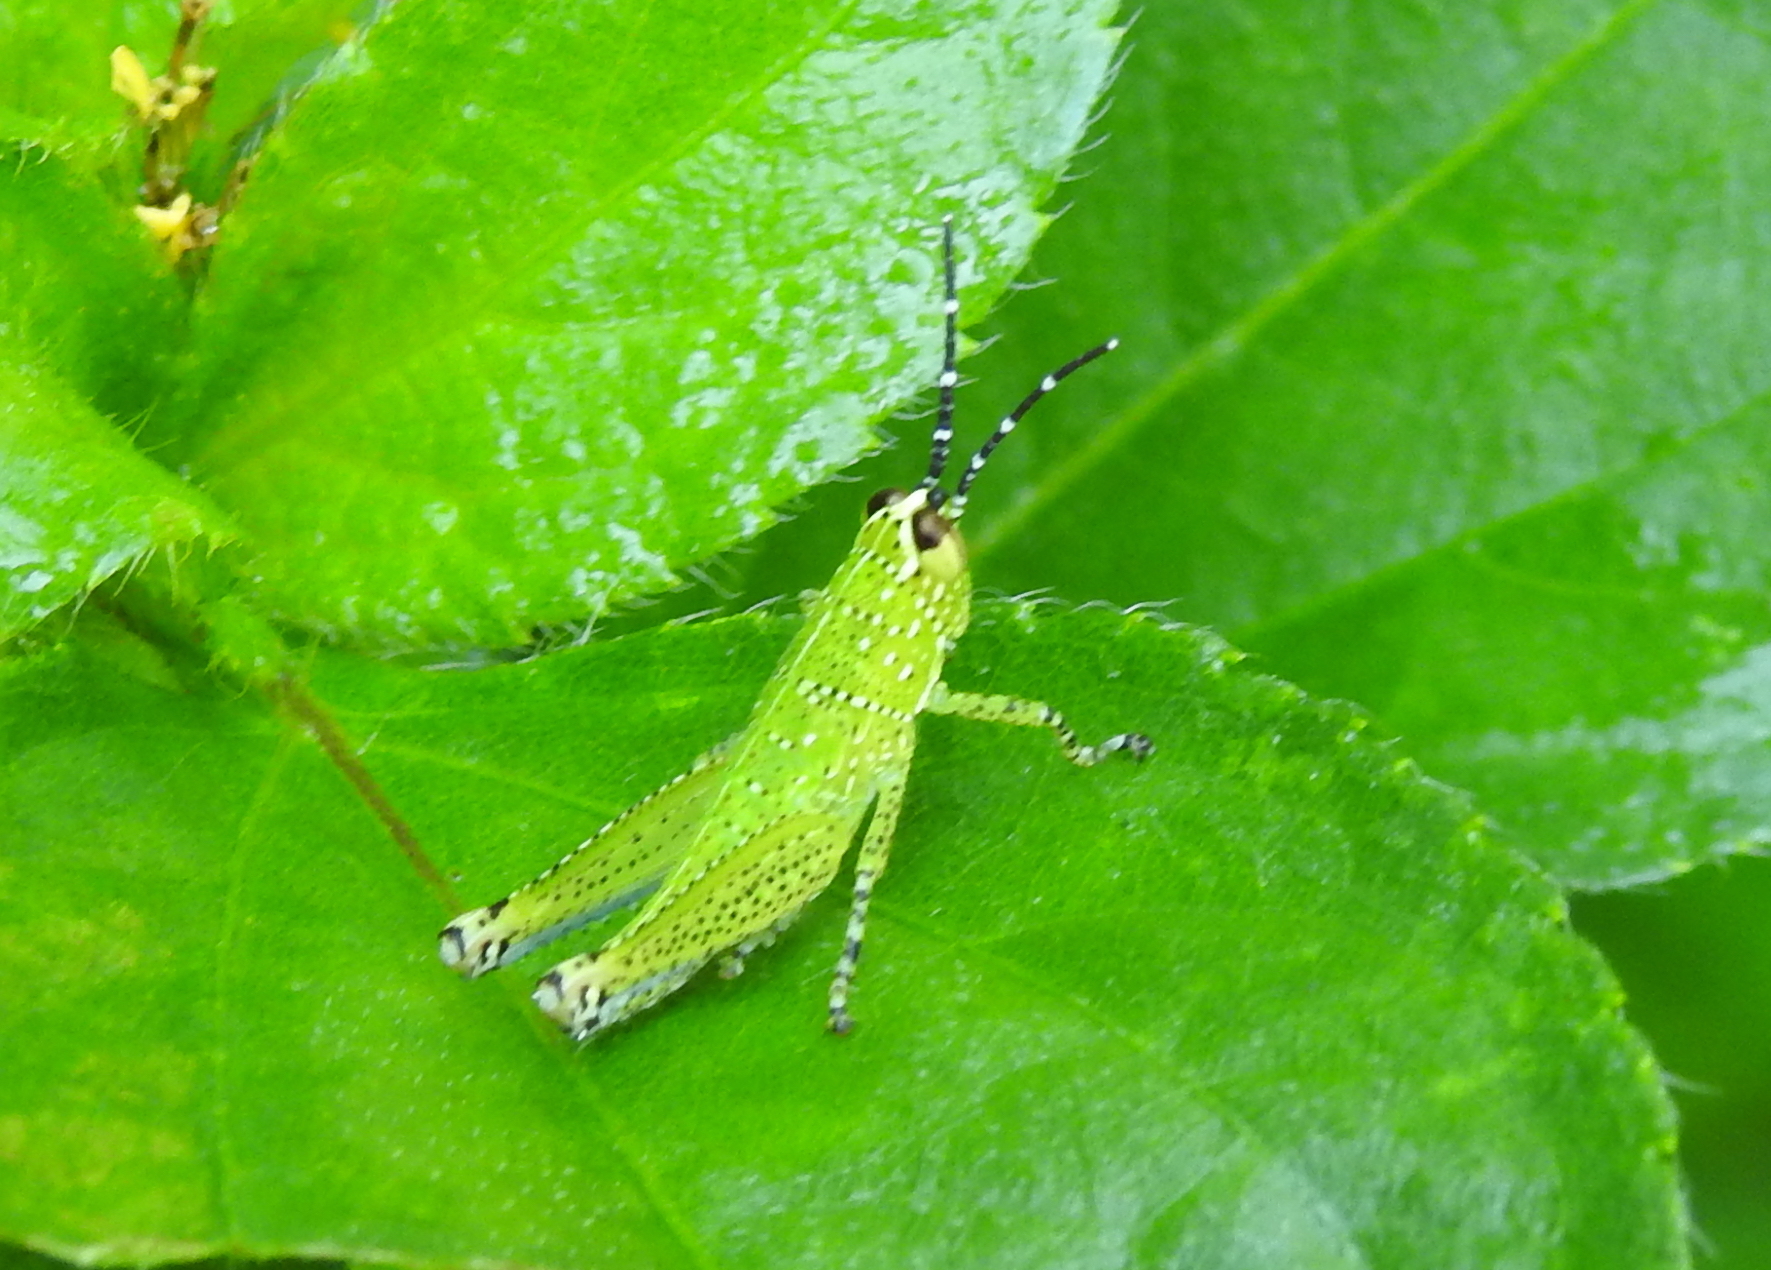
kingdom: Animalia
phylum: Arthropoda
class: Insecta
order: Orthoptera
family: Acrididae
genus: Xenocatantops
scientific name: Xenocatantops humile
